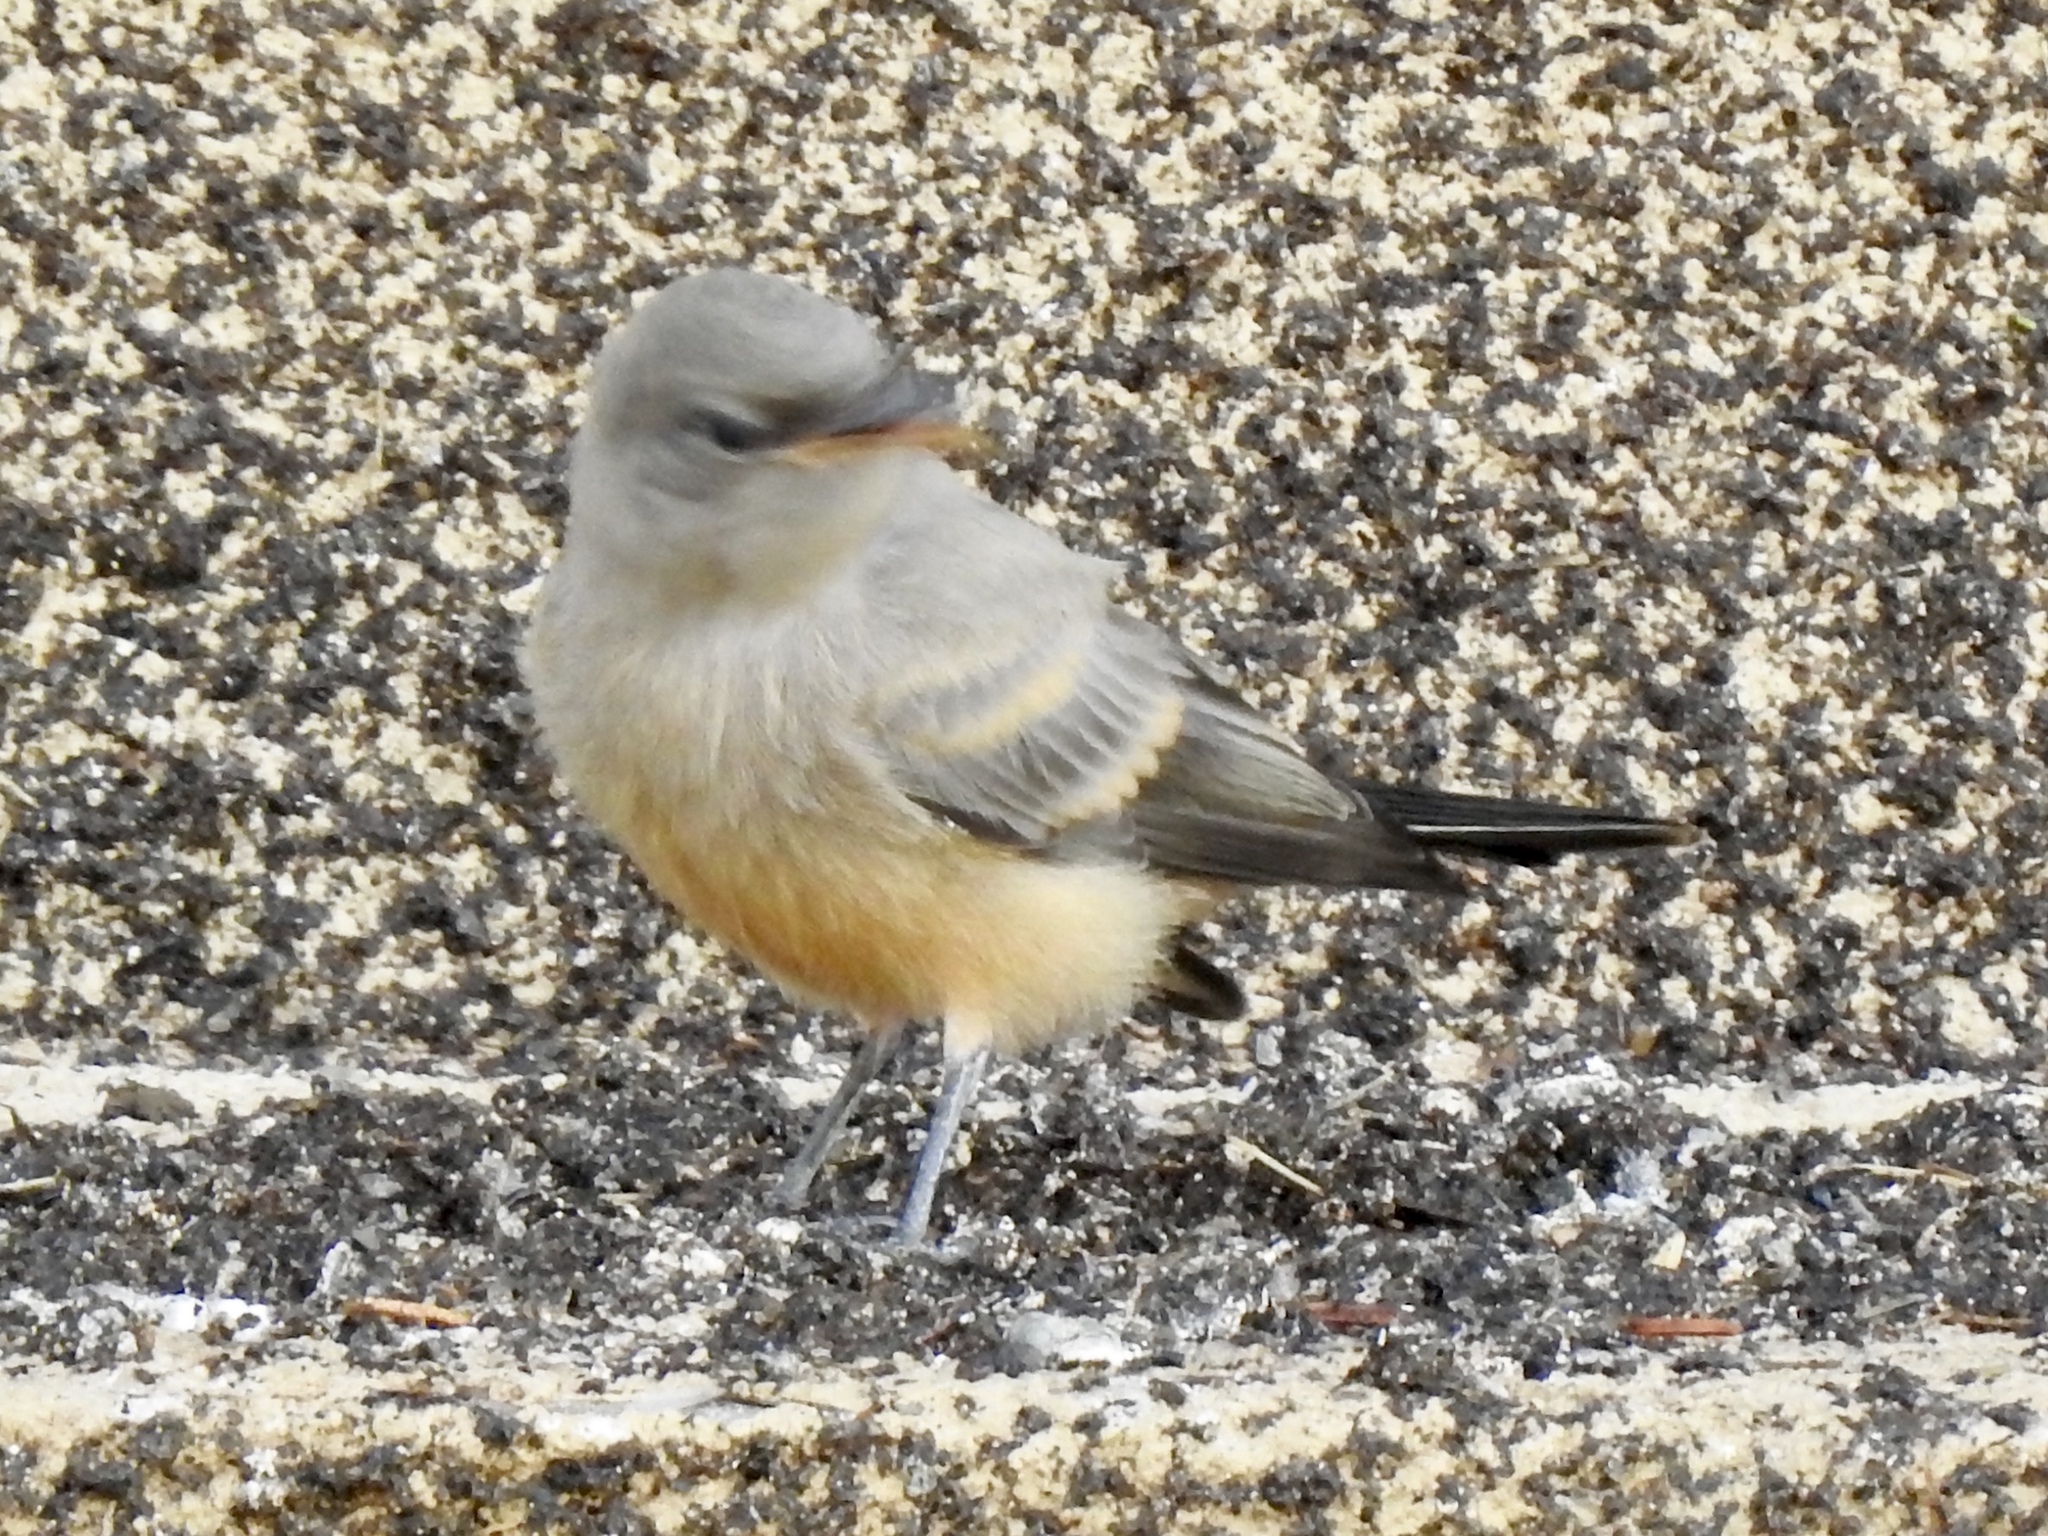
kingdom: Animalia
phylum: Chordata
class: Aves
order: Passeriformes
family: Tyrannidae
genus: Sayornis
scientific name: Sayornis saya
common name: Say's phoebe
